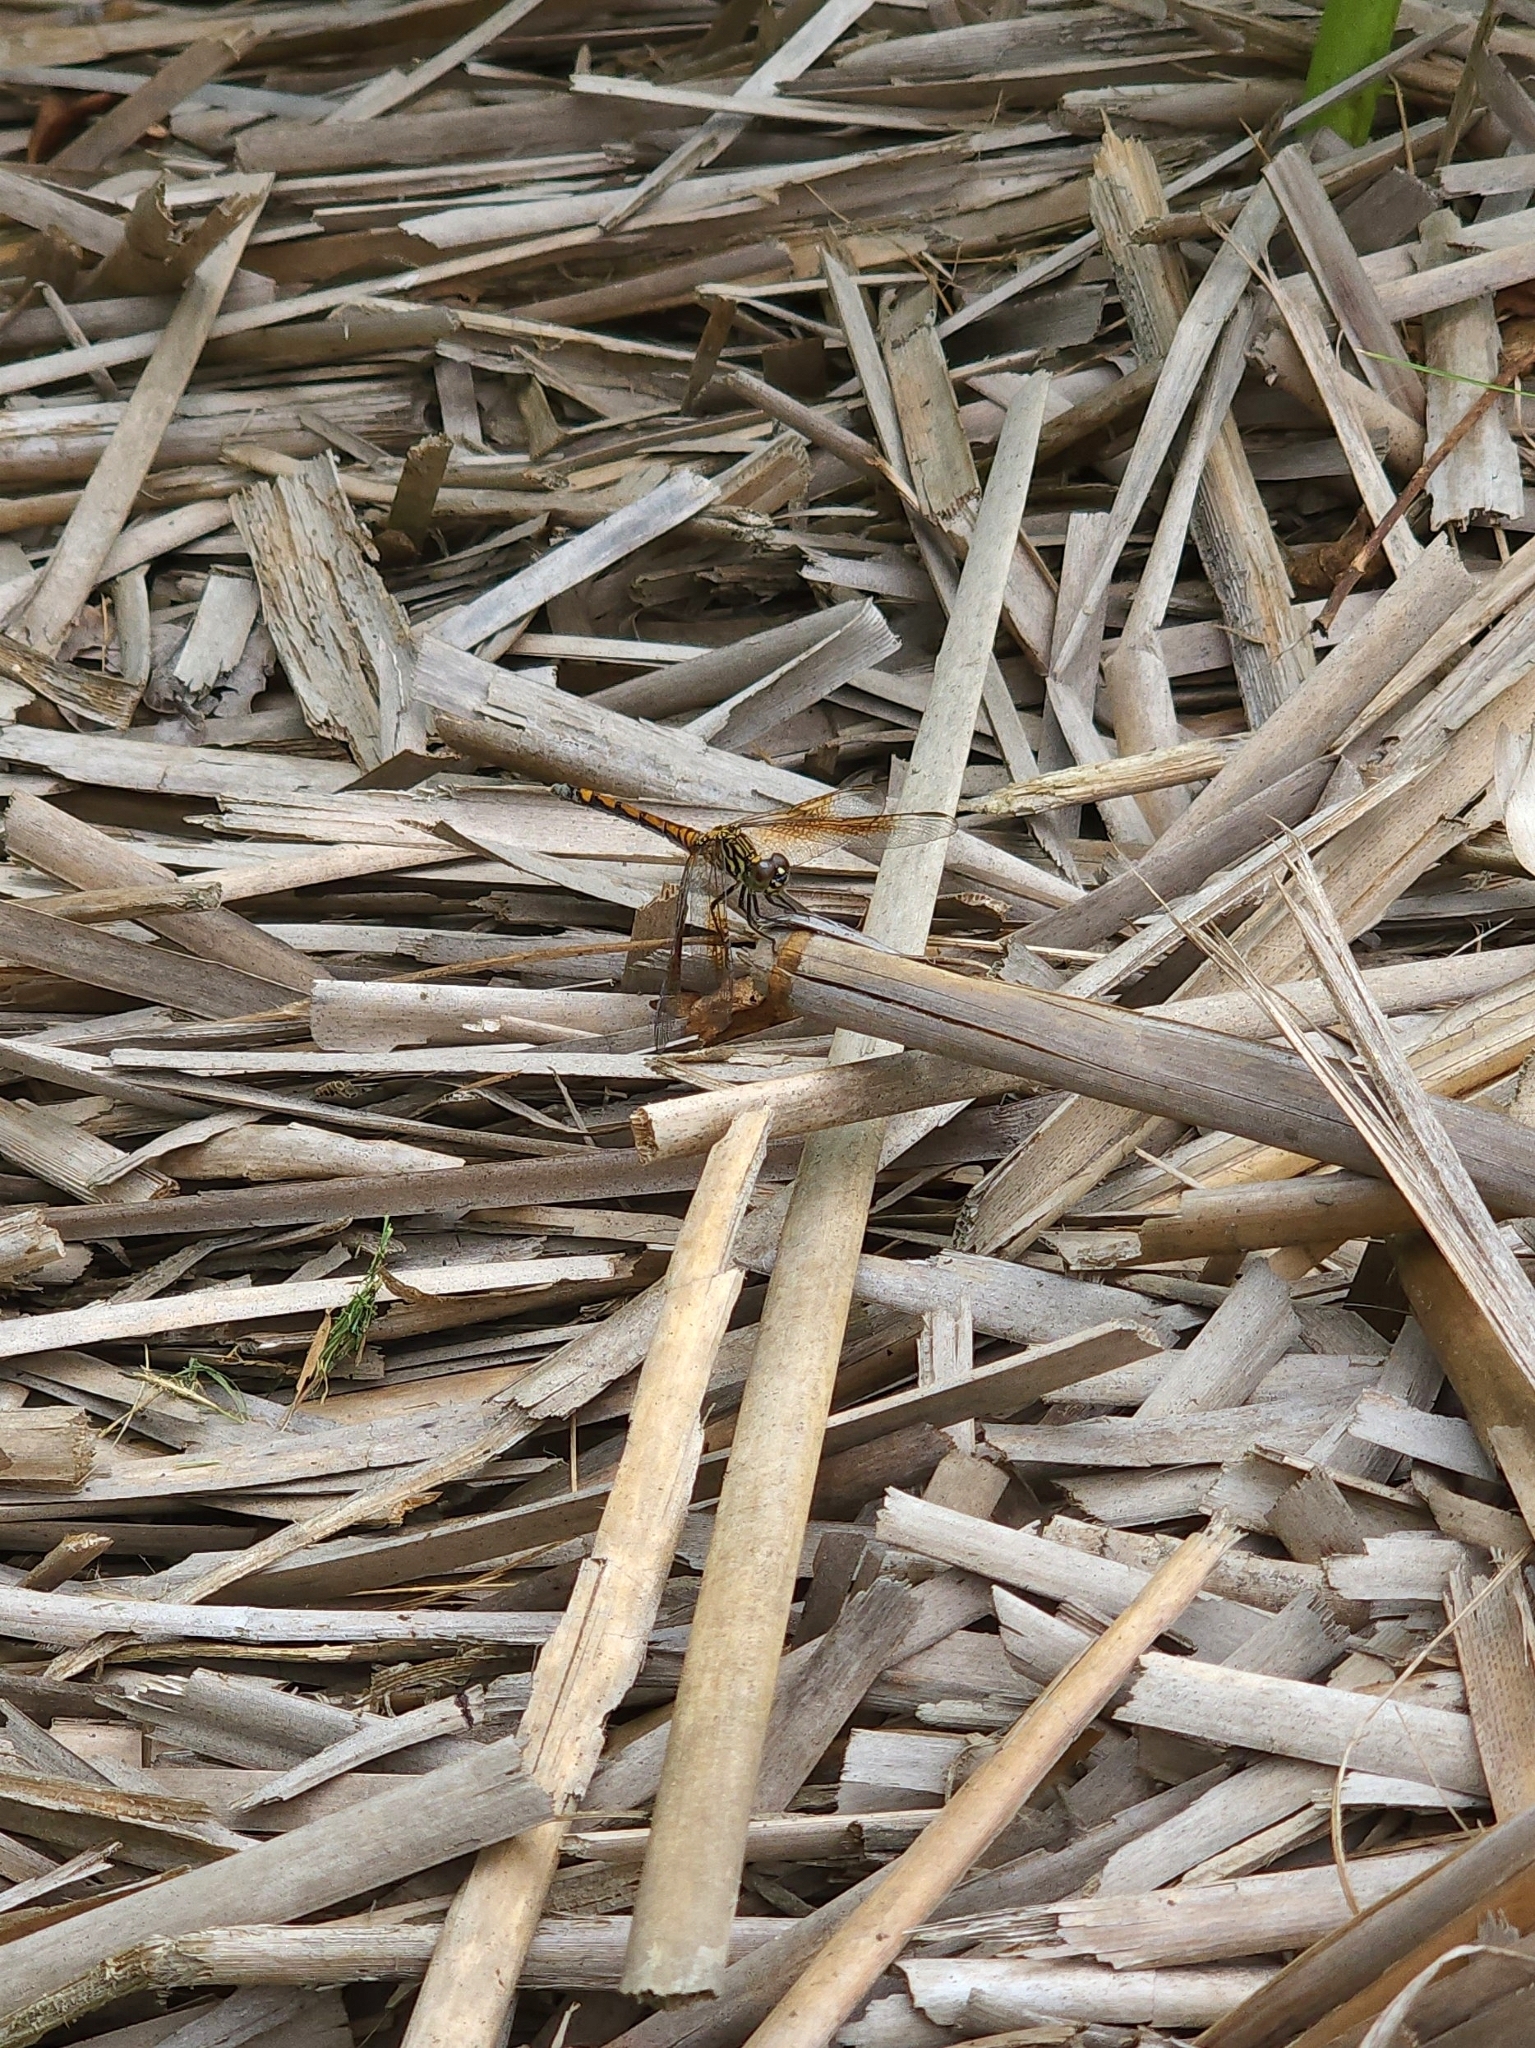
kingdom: Animalia
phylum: Arthropoda
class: Insecta
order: Odonata
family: Libellulidae
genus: Erythrodiplax
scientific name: Erythrodiplax berenice
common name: Seaside dragonlet
